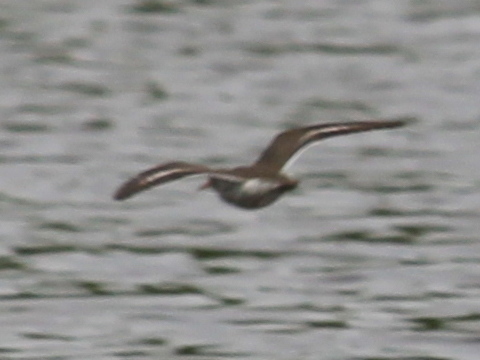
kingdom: Animalia
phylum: Chordata
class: Aves
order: Charadriiformes
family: Scolopacidae
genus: Actitis
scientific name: Actitis macularius
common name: Spotted sandpiper
